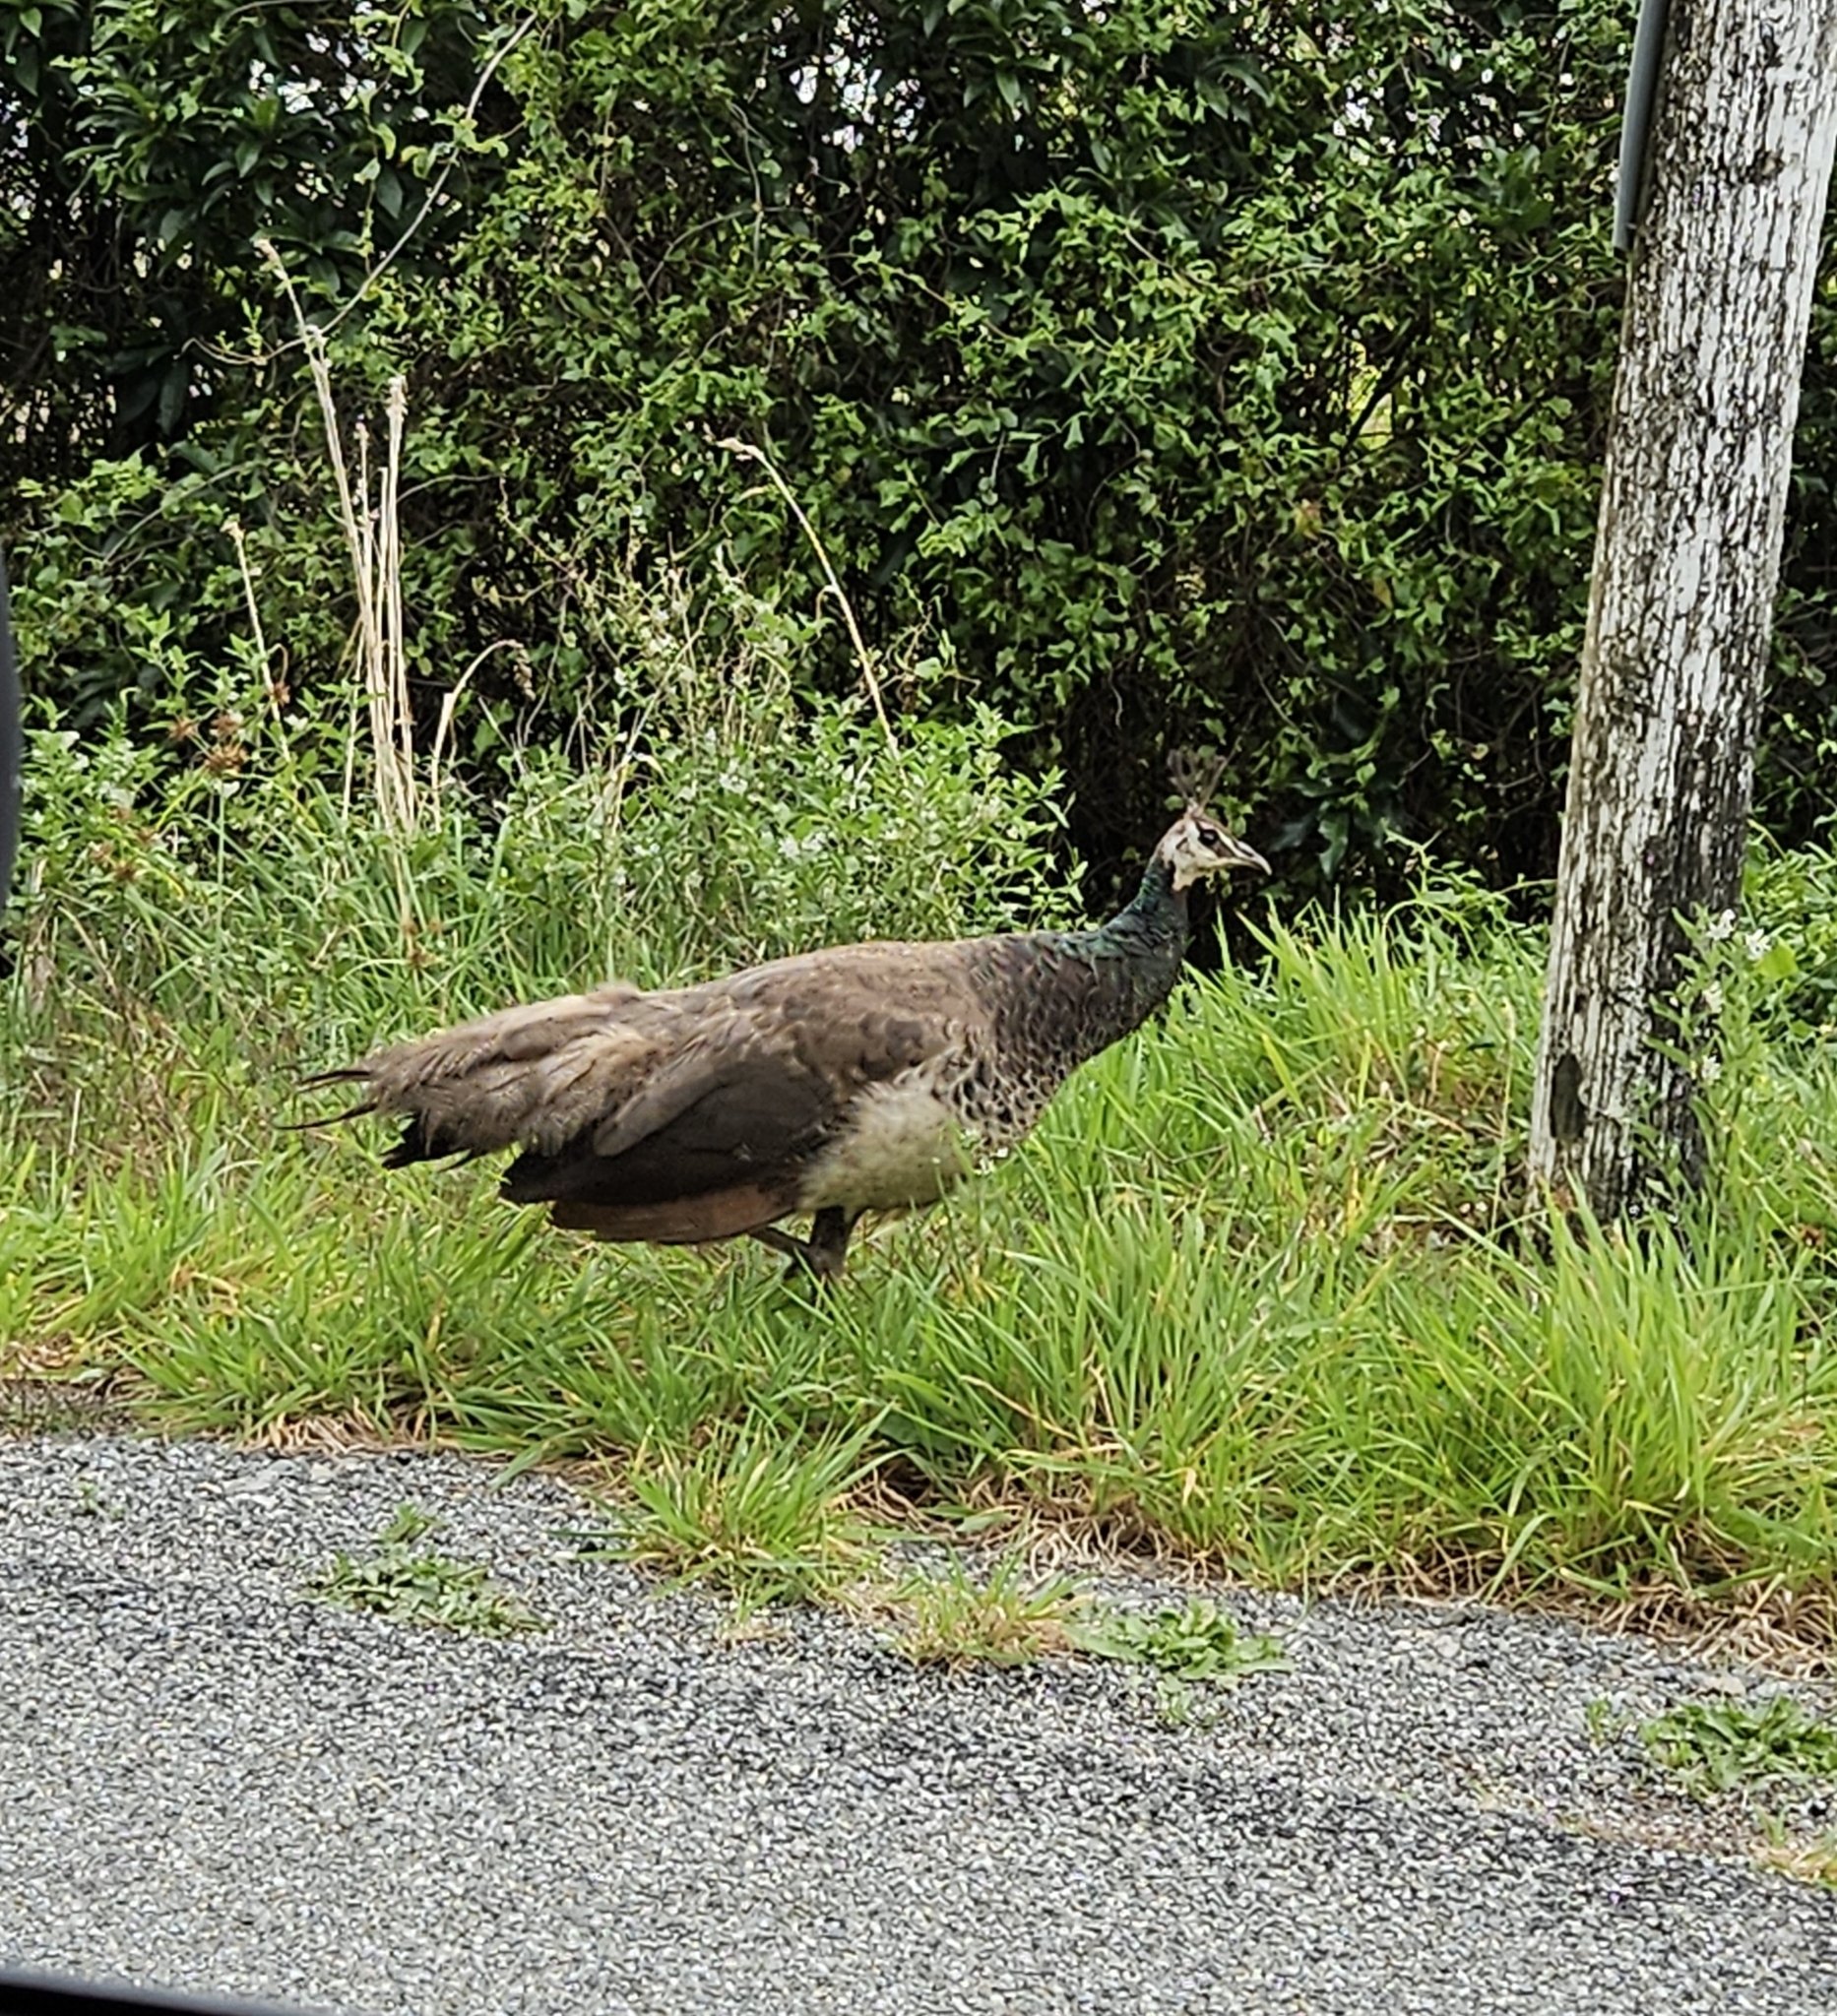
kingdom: Animalia
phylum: Chordata
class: Aves
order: Galliformes
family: Phasianidae
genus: Pavo
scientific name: Pavo cristatus
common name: Indian peafowl
